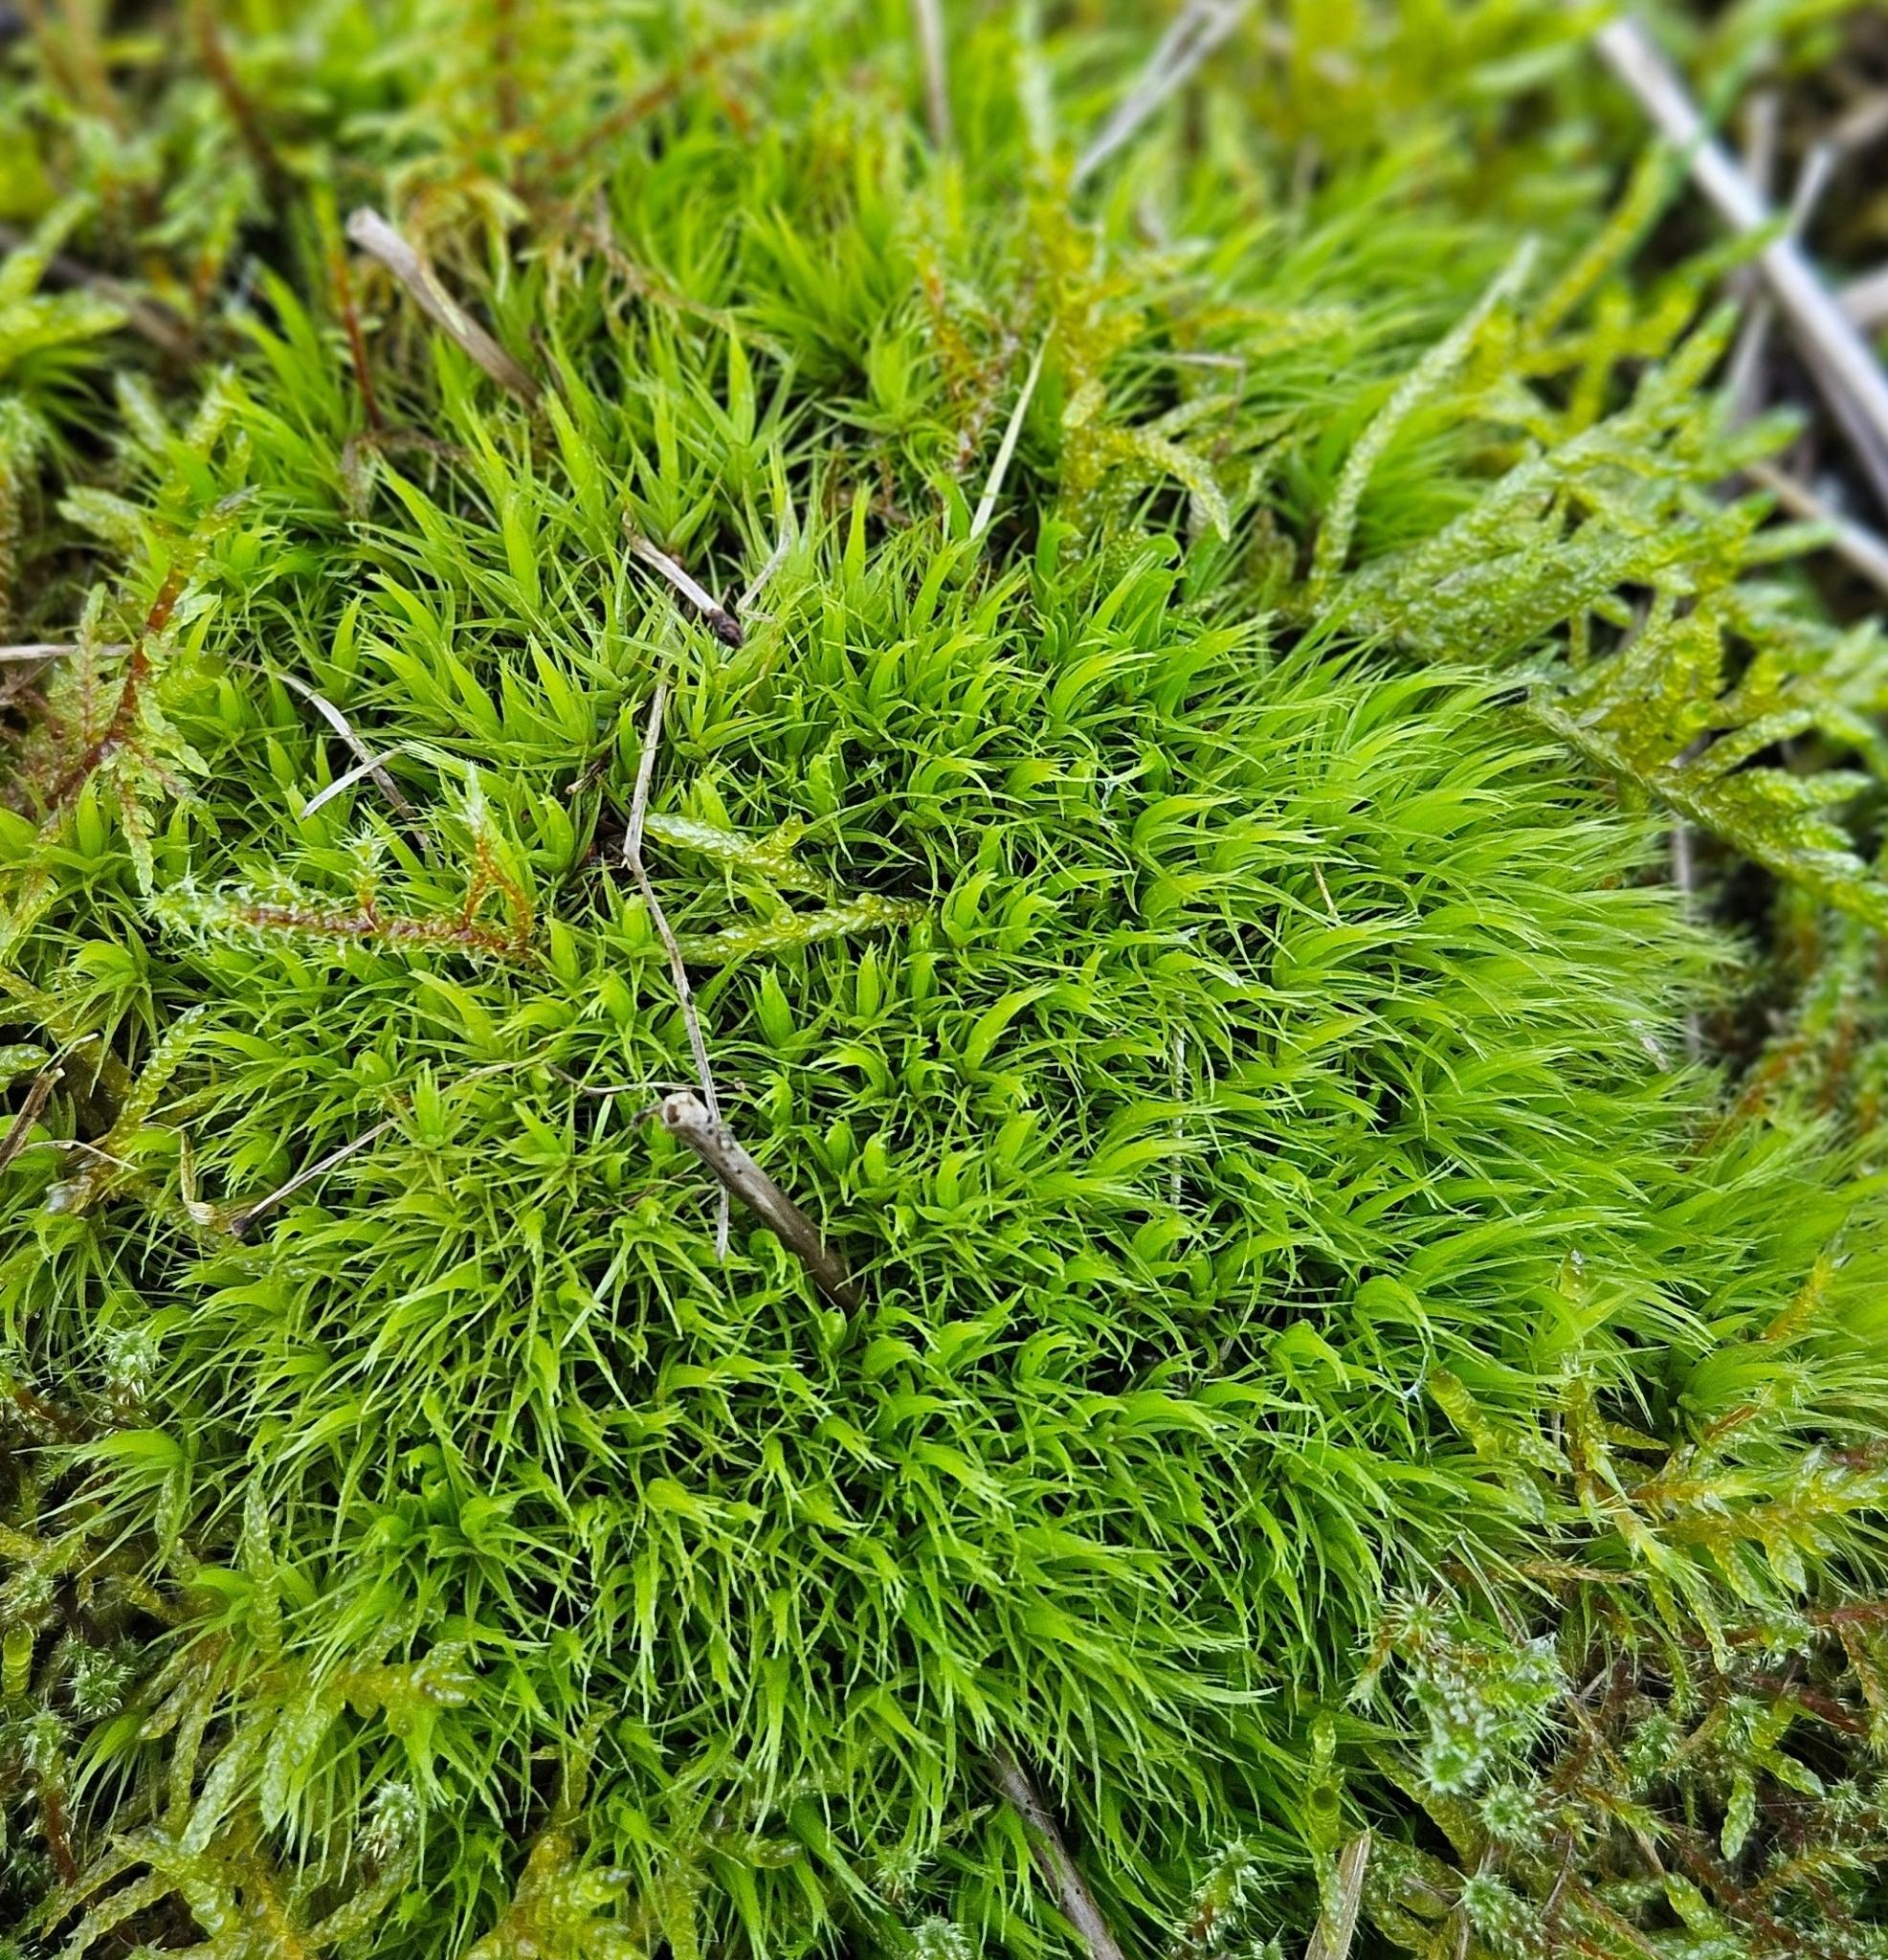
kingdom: Plantae
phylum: Bryophyta
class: Bryopsida
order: Dicranales
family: Dicranaceae
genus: Dicranum
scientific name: Dicranum scoparium
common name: Broom fork-moss
